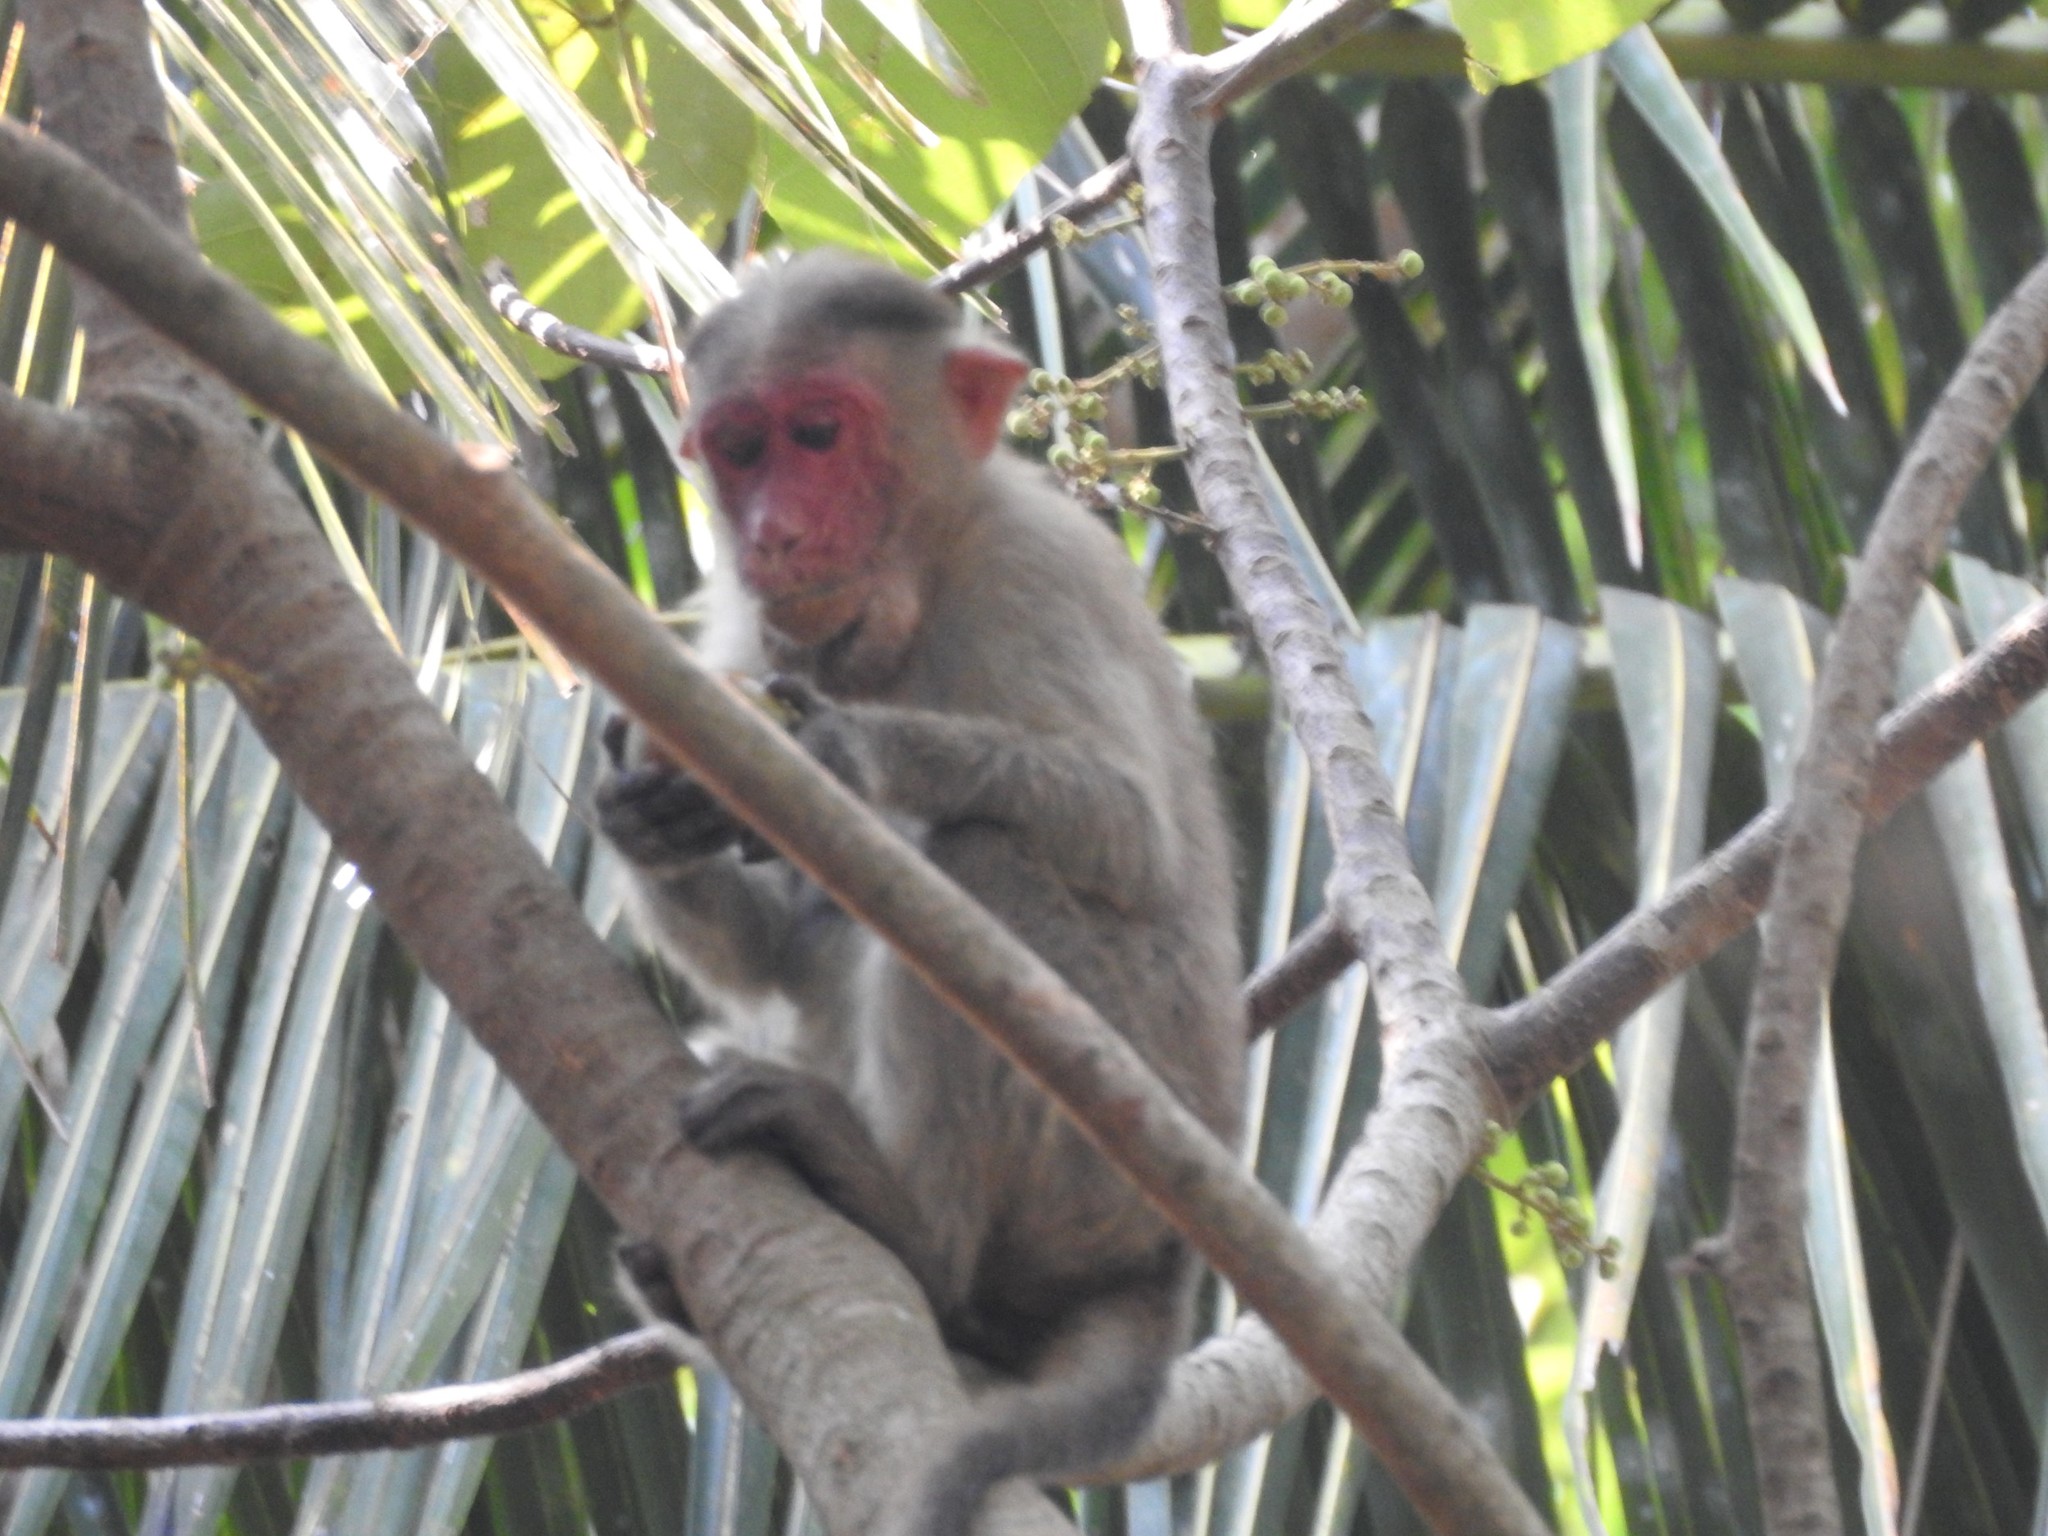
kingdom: Animalia
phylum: Chordata
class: Mammalia
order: Primates
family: Cercopithecidae
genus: Macaca
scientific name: Macaca radiata
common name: Bonnet macaque
